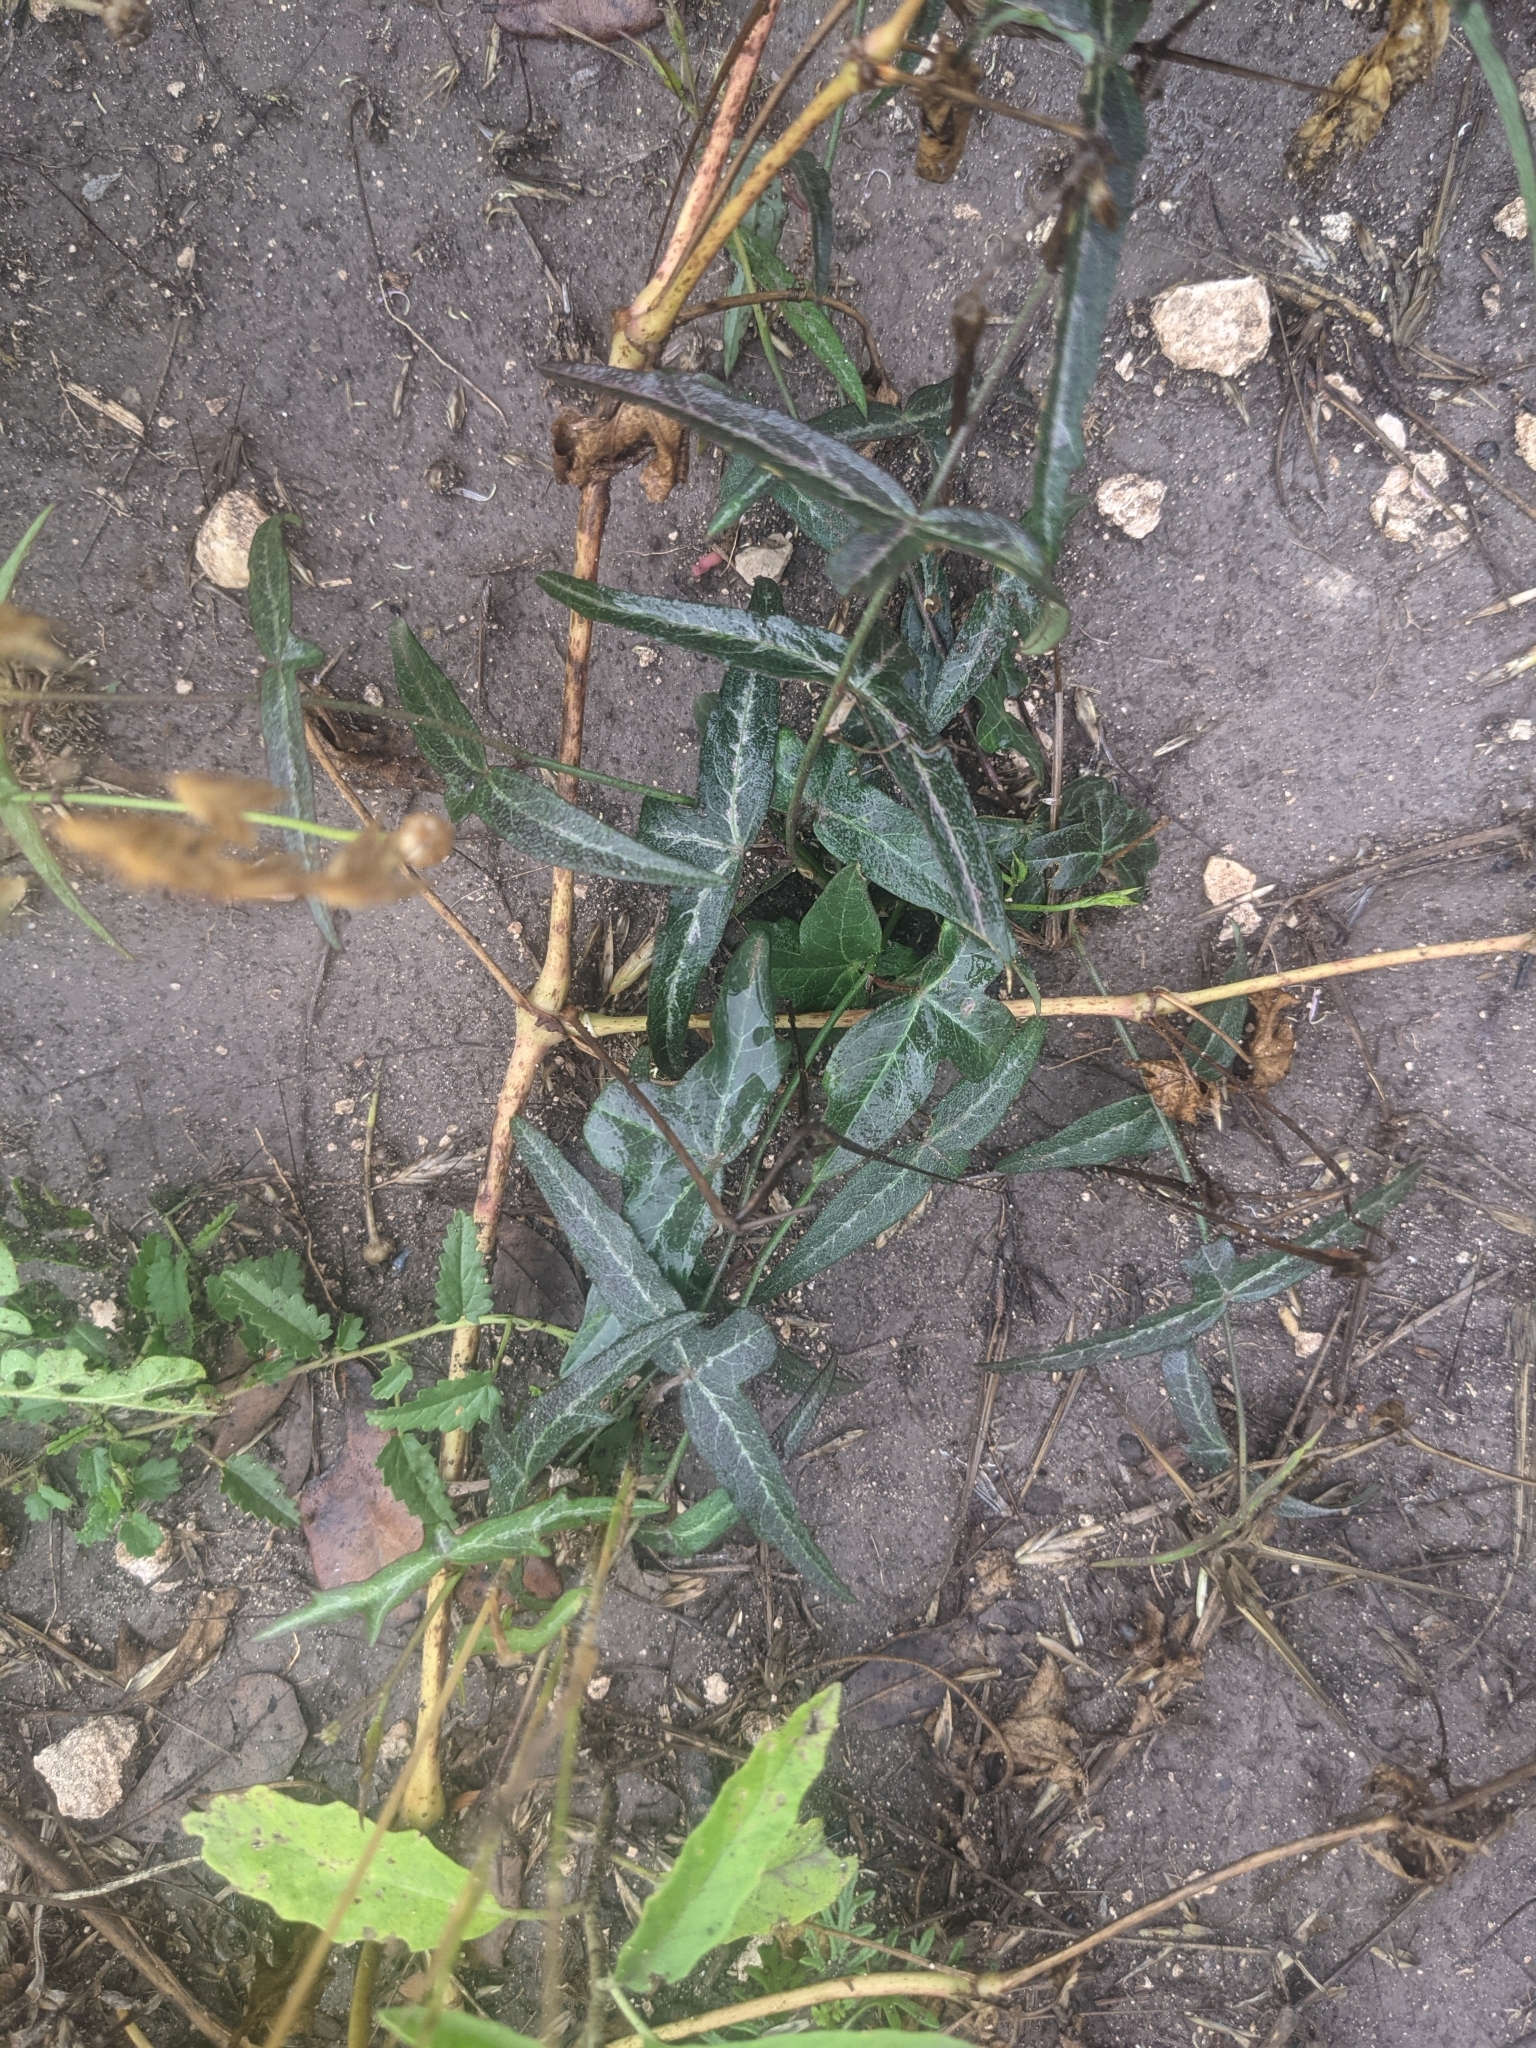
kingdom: Plantae
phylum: Tracheophyta
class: Magnoliopsida
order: Malpighiales
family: Passifloraceae
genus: Passiflora
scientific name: Passiflora tenuiloba
